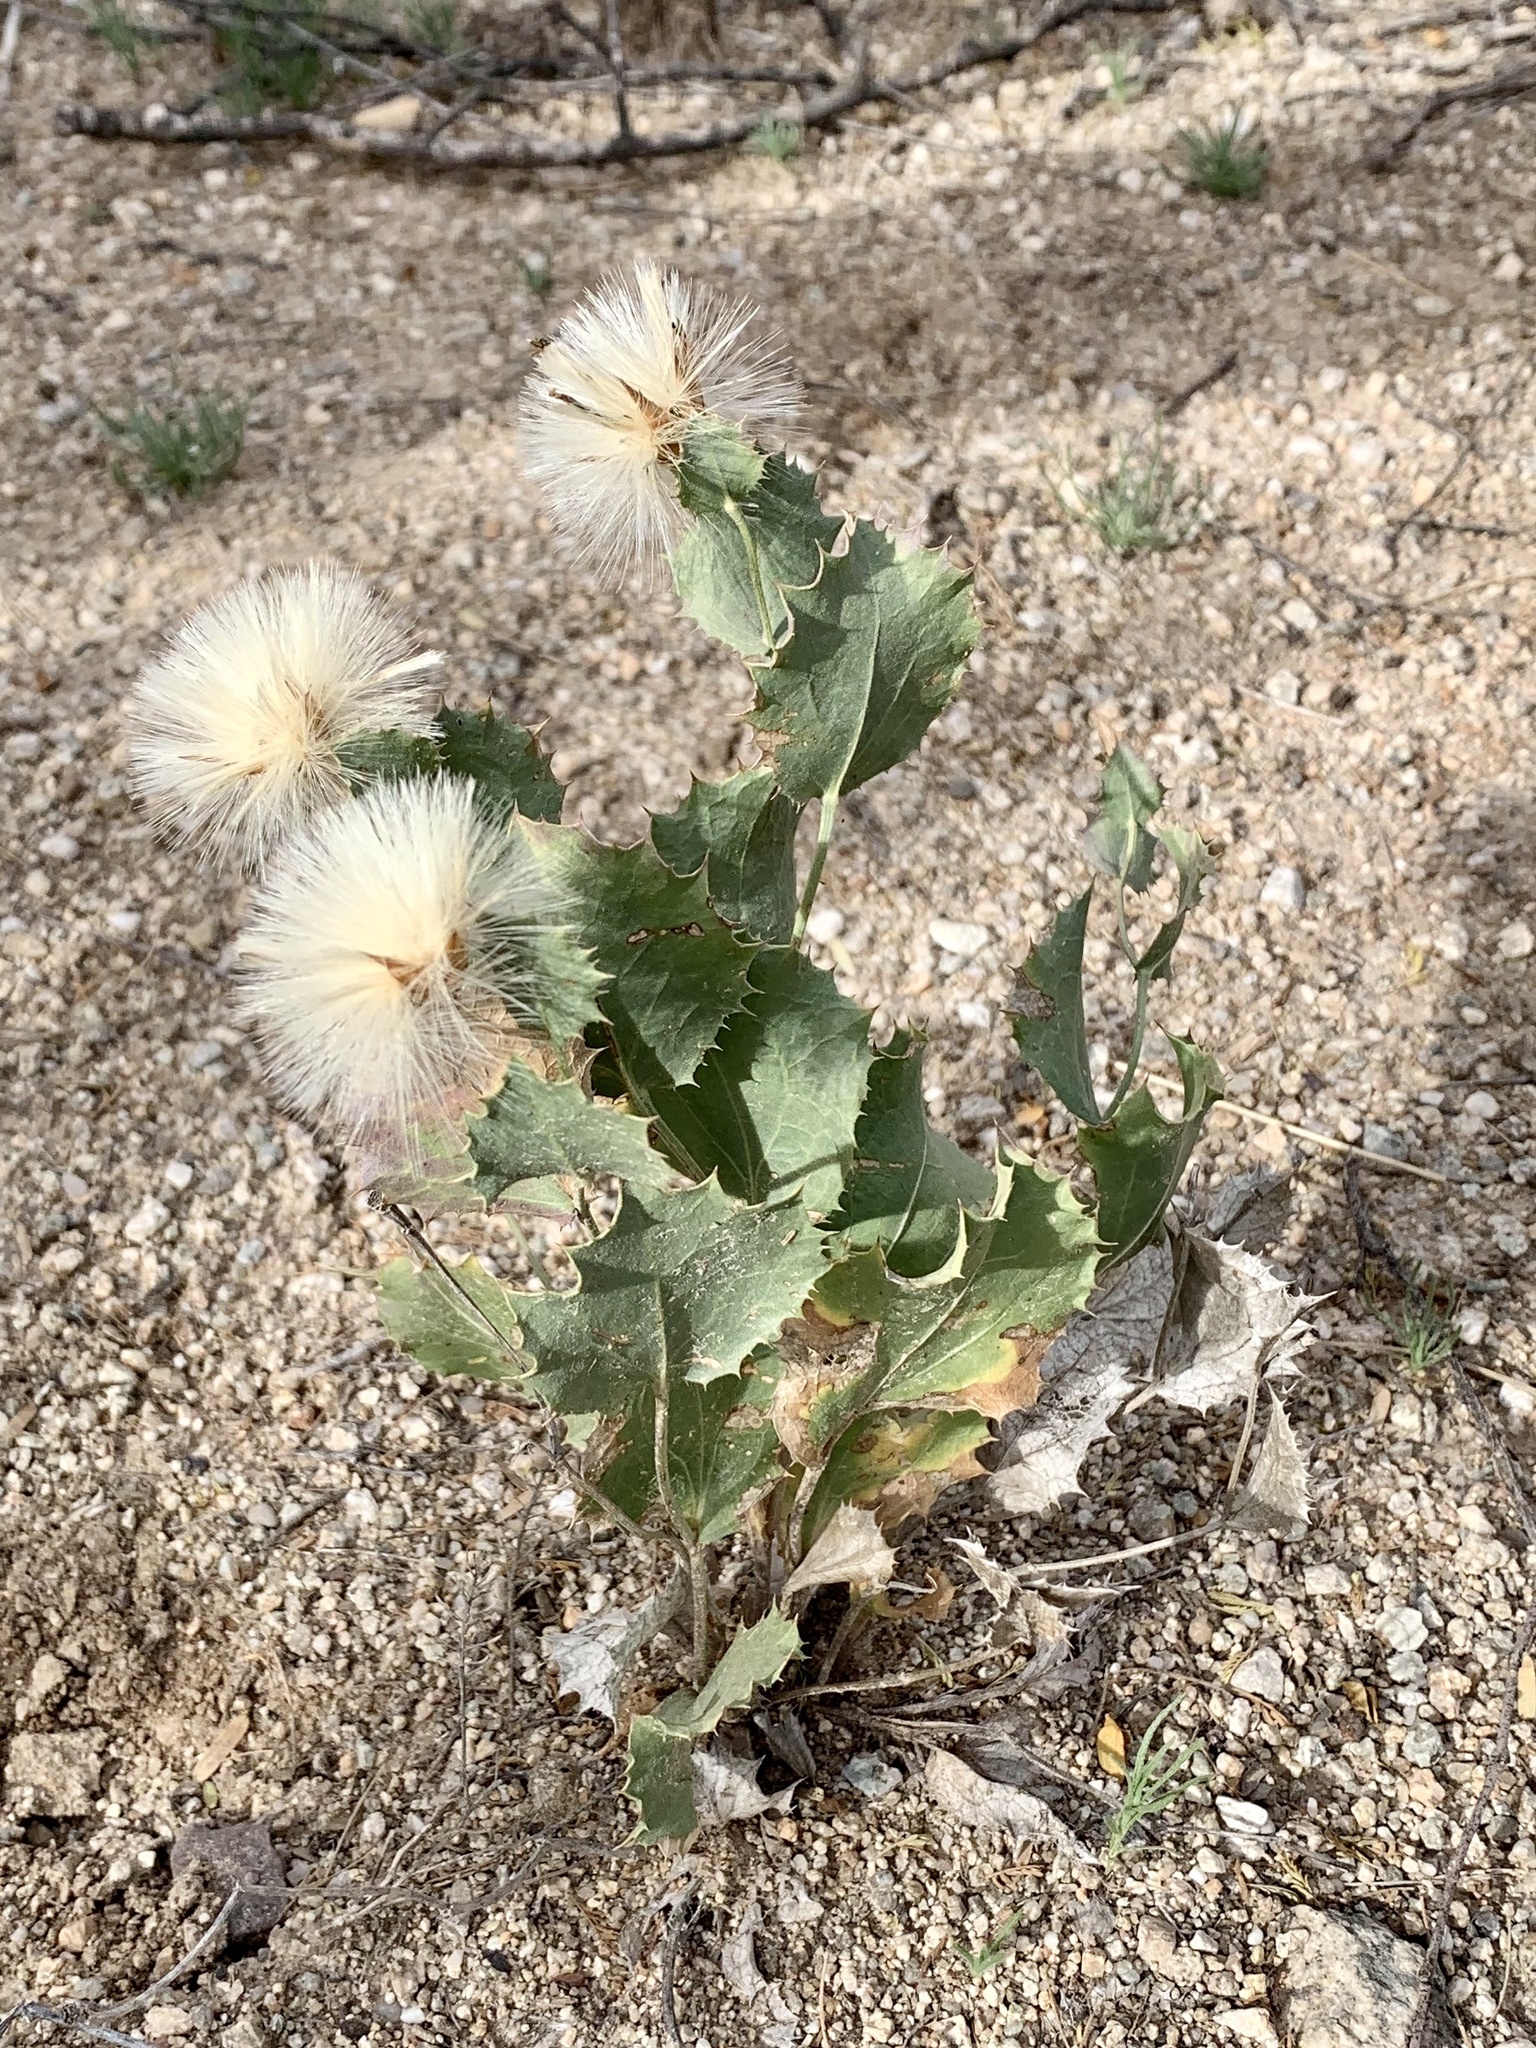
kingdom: Plantae
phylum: Tracheophyta
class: Magnoliopsida
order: Asterales
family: Asteraceae
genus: Acourtia
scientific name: Acourtia nana
